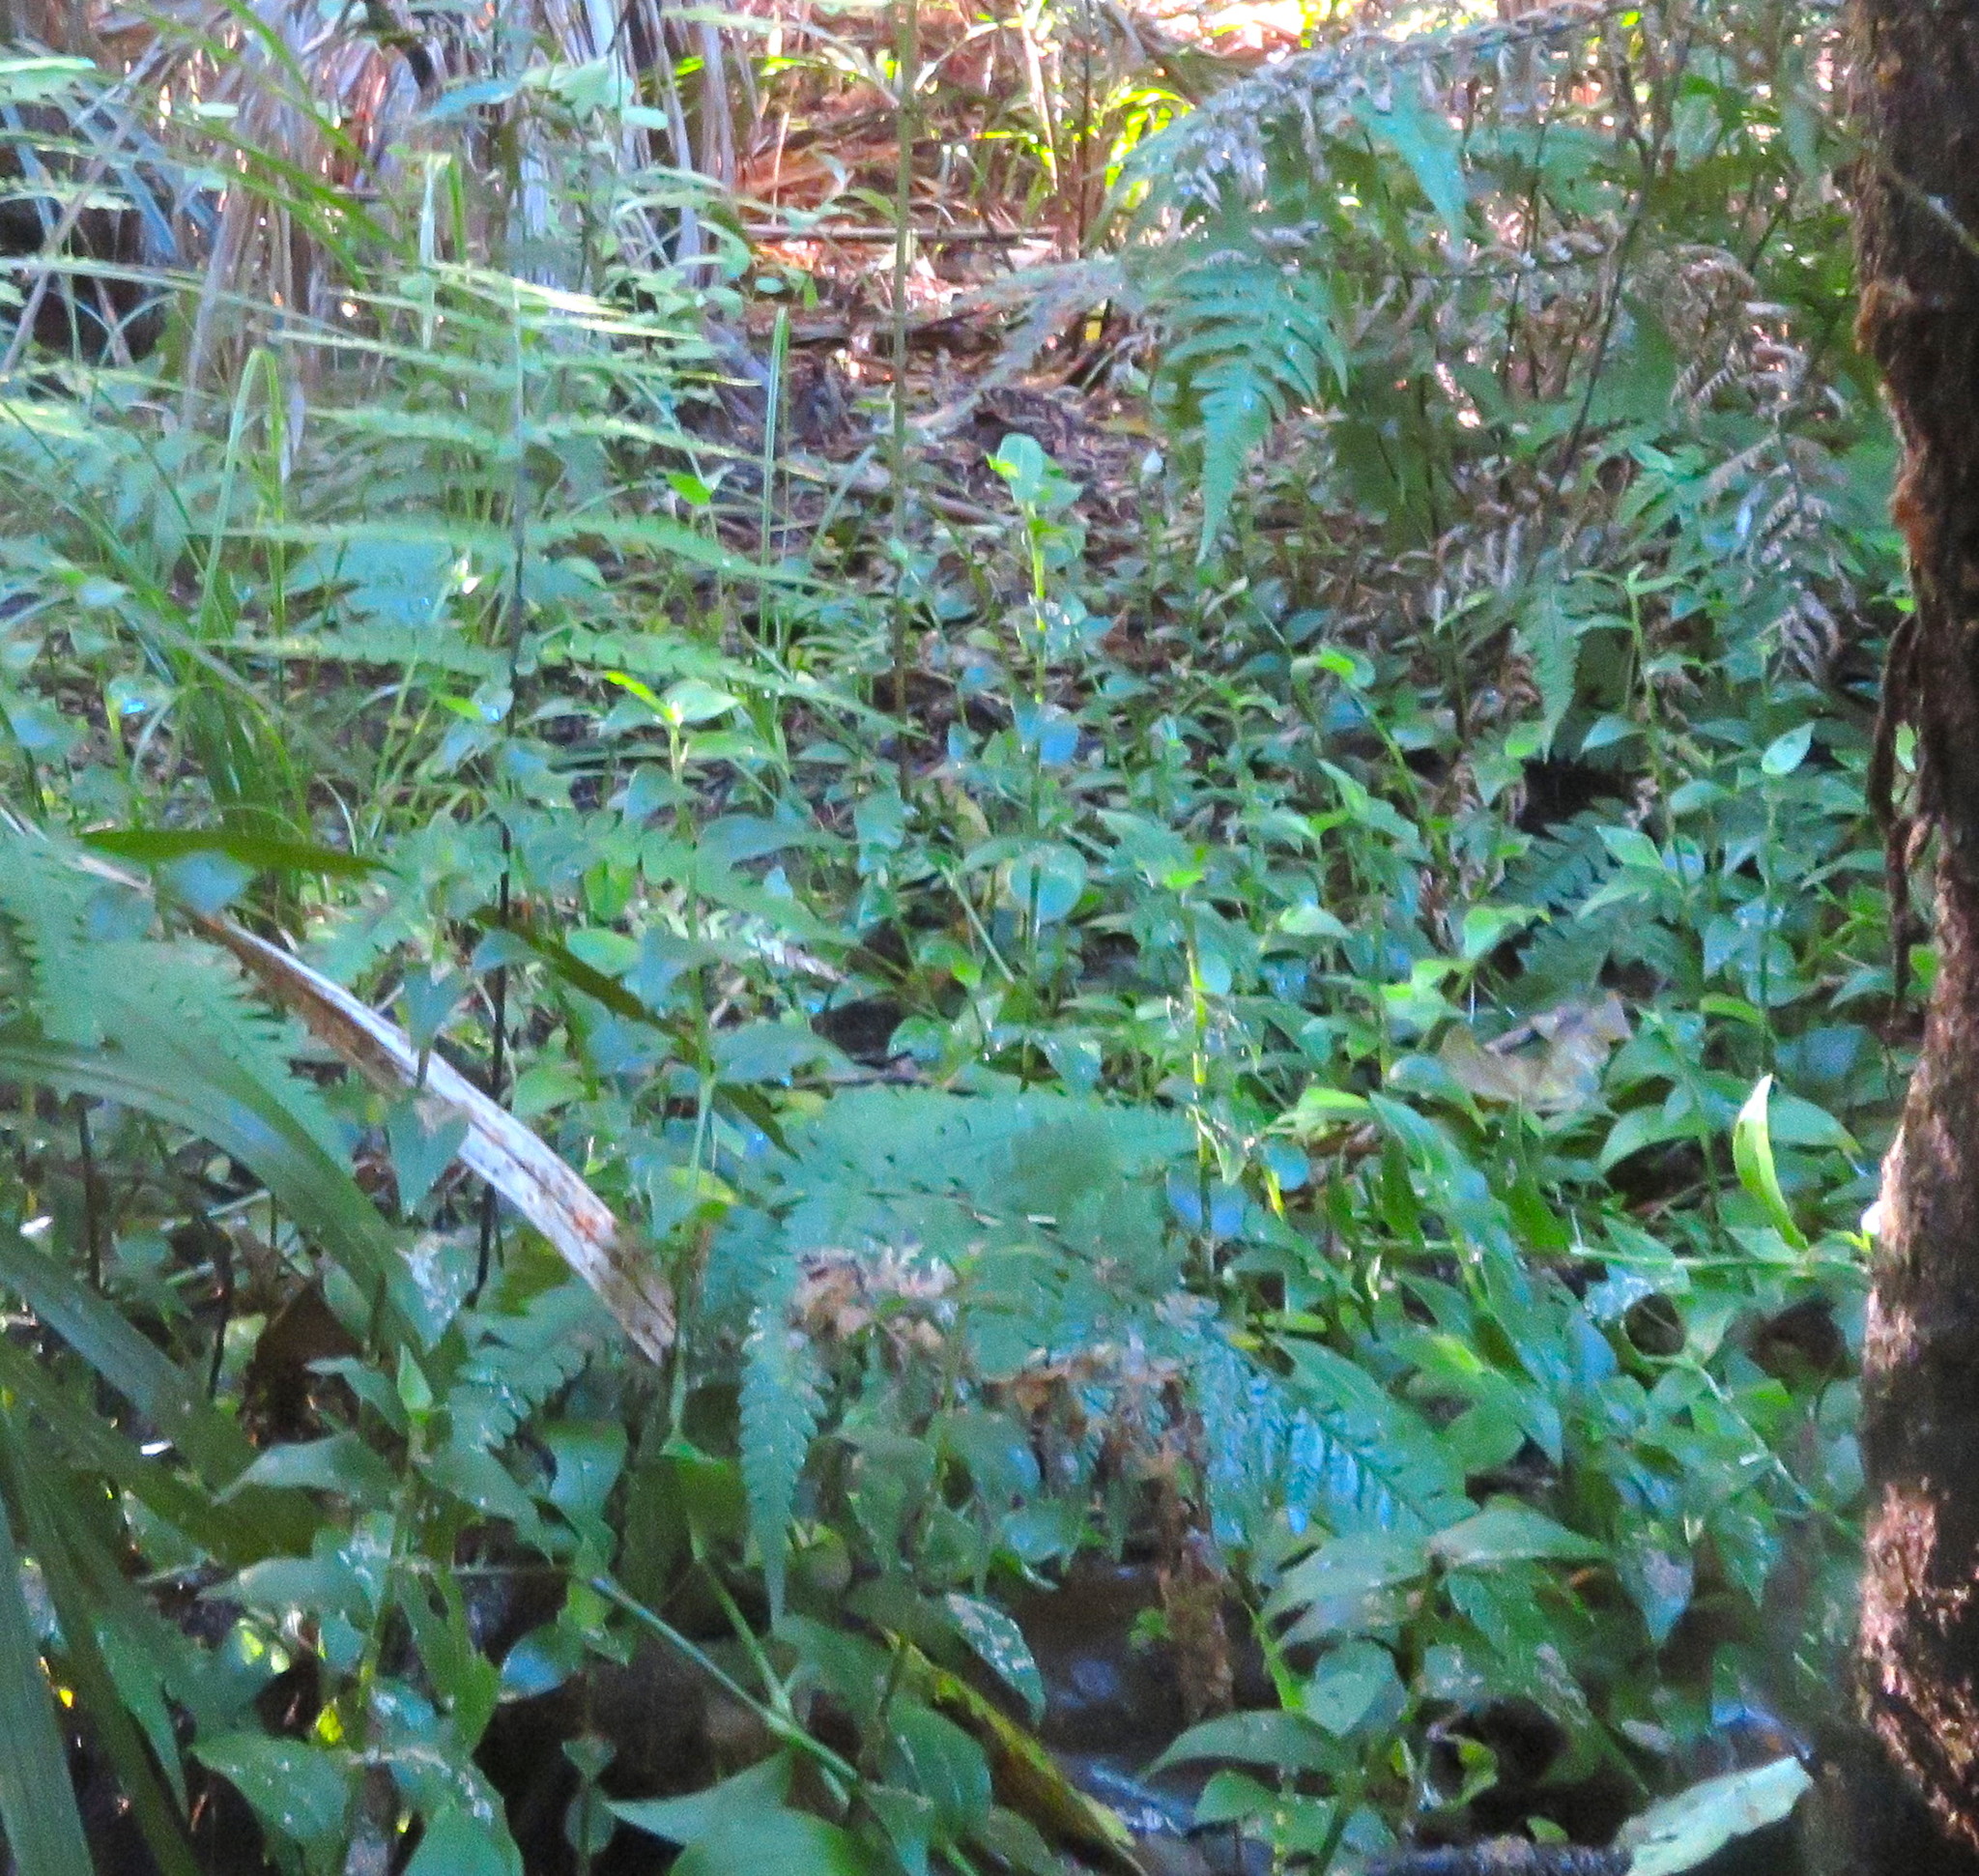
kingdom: Plantae
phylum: Tracheophyta
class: Liliopsida
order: Commelinales
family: Commelinaceae
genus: Tradescantia
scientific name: Tradescantia fluminensis
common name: Wandering-jew
